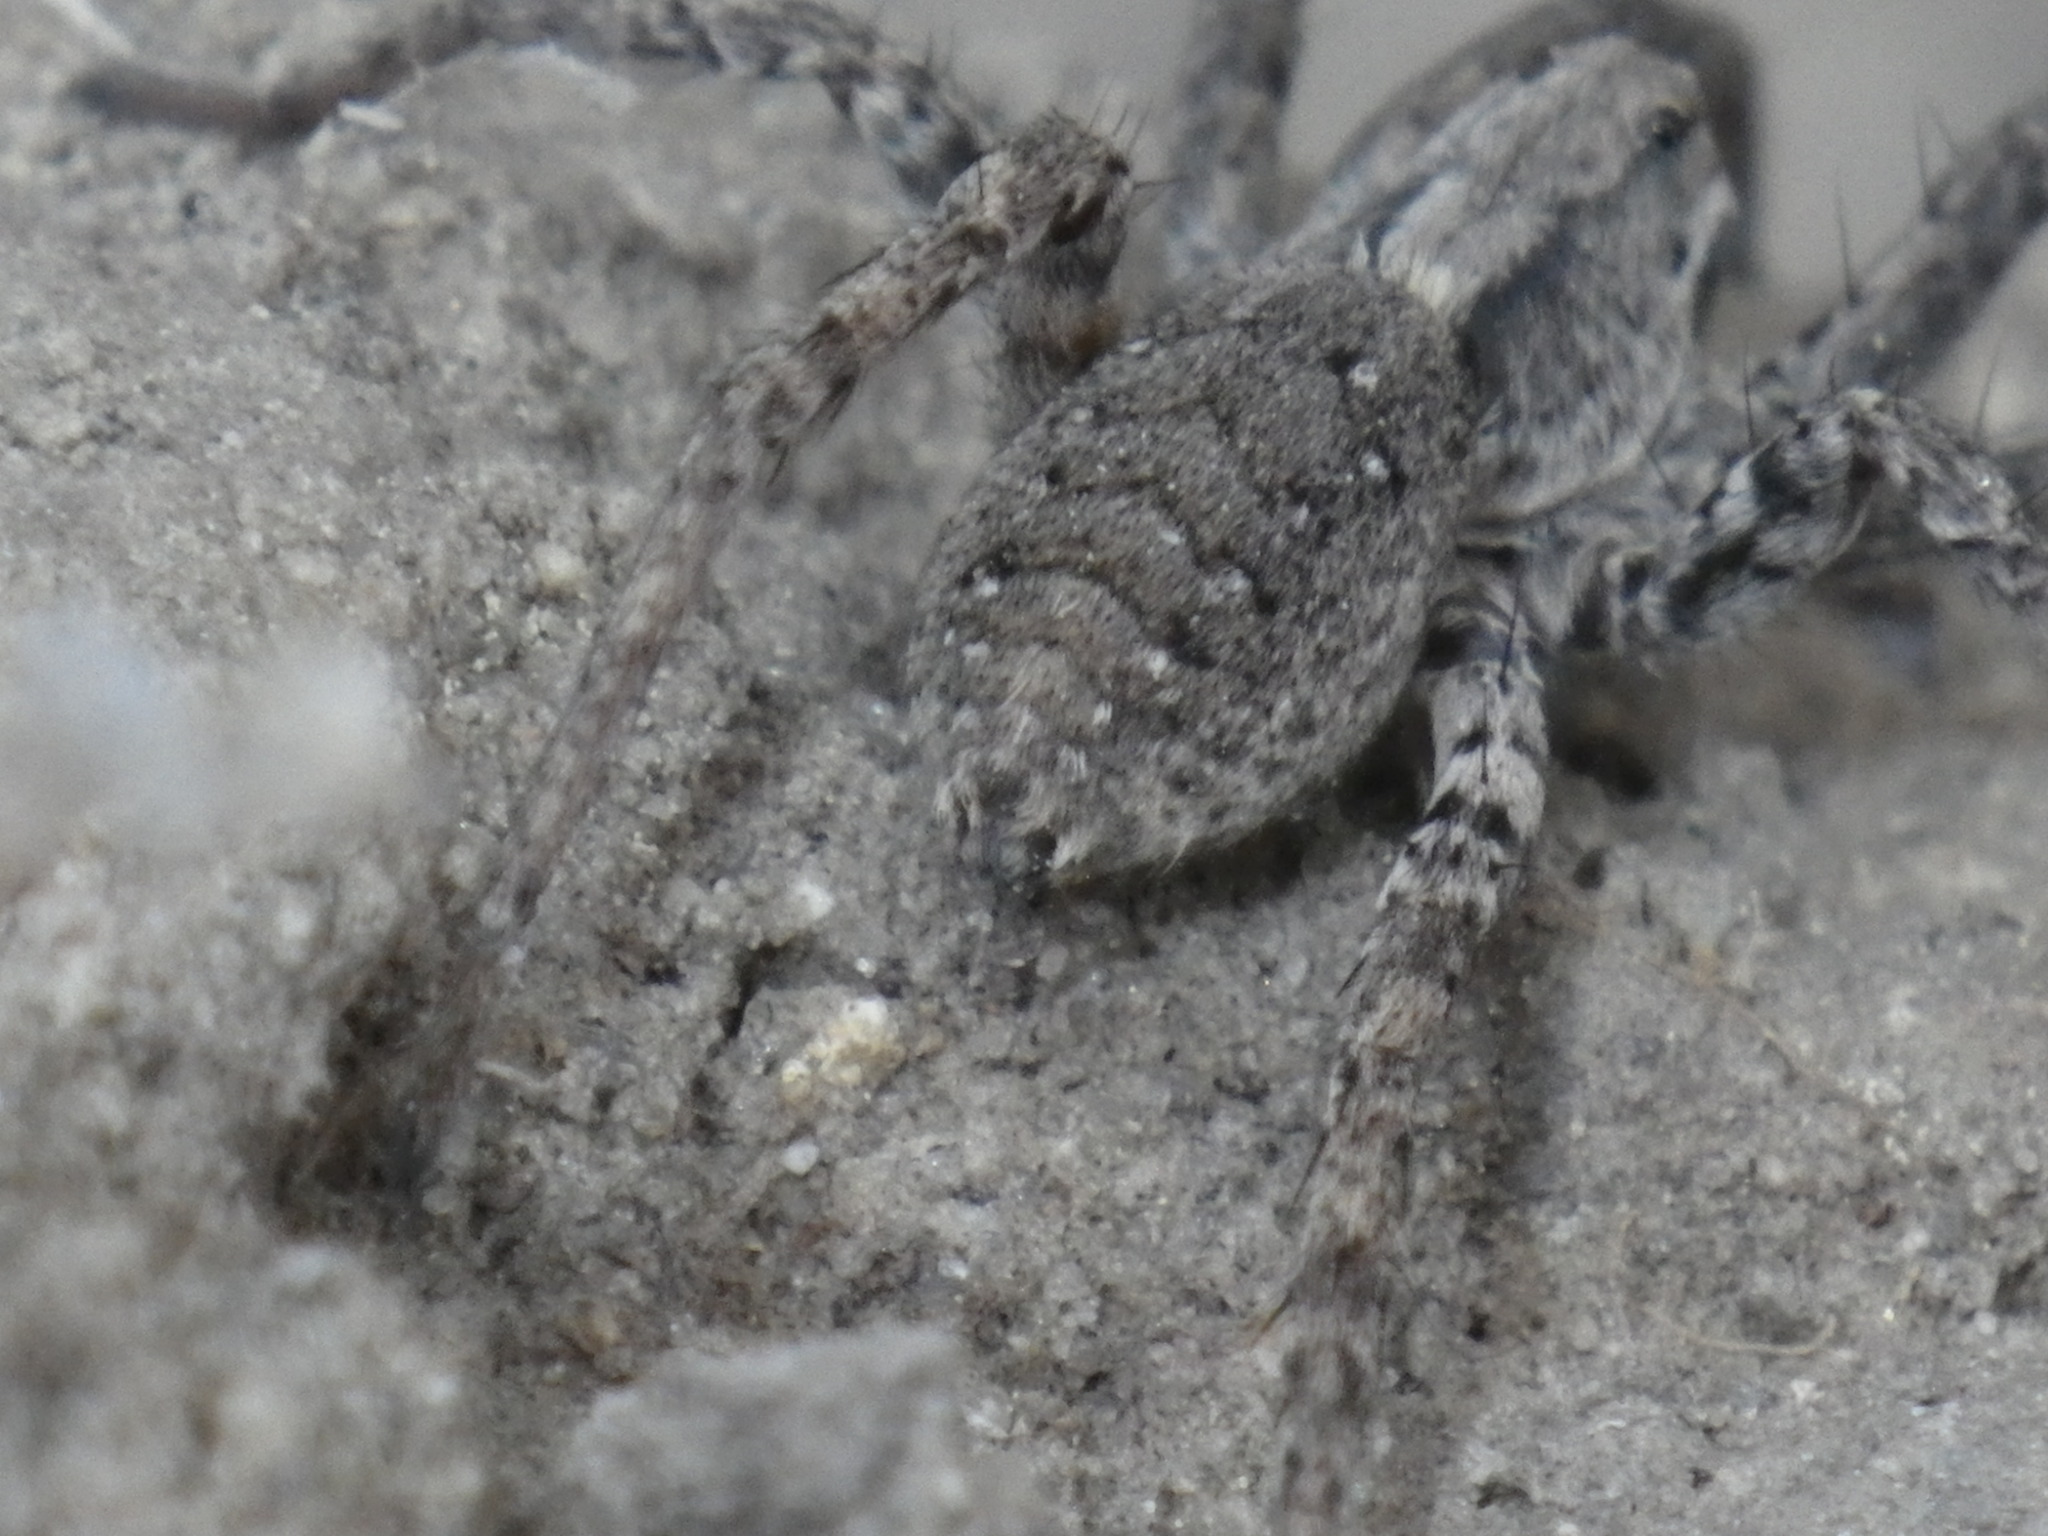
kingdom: Animalia
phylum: Arthropoda
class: Arachnida
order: Araneae
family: Lycosidae
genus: Alopecosa
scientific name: Alopecosa kochi
